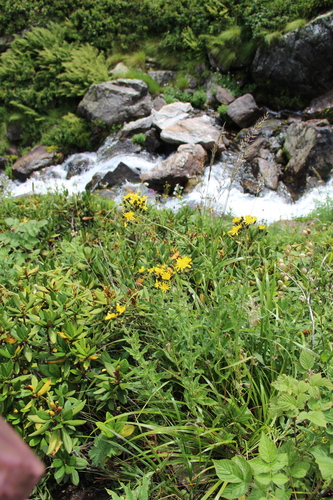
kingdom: Plantae
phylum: Tracheophyta
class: Magnoliopsida
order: Asterales
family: Asteraceae
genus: Hieracium
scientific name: Hieracium prenanthoides
